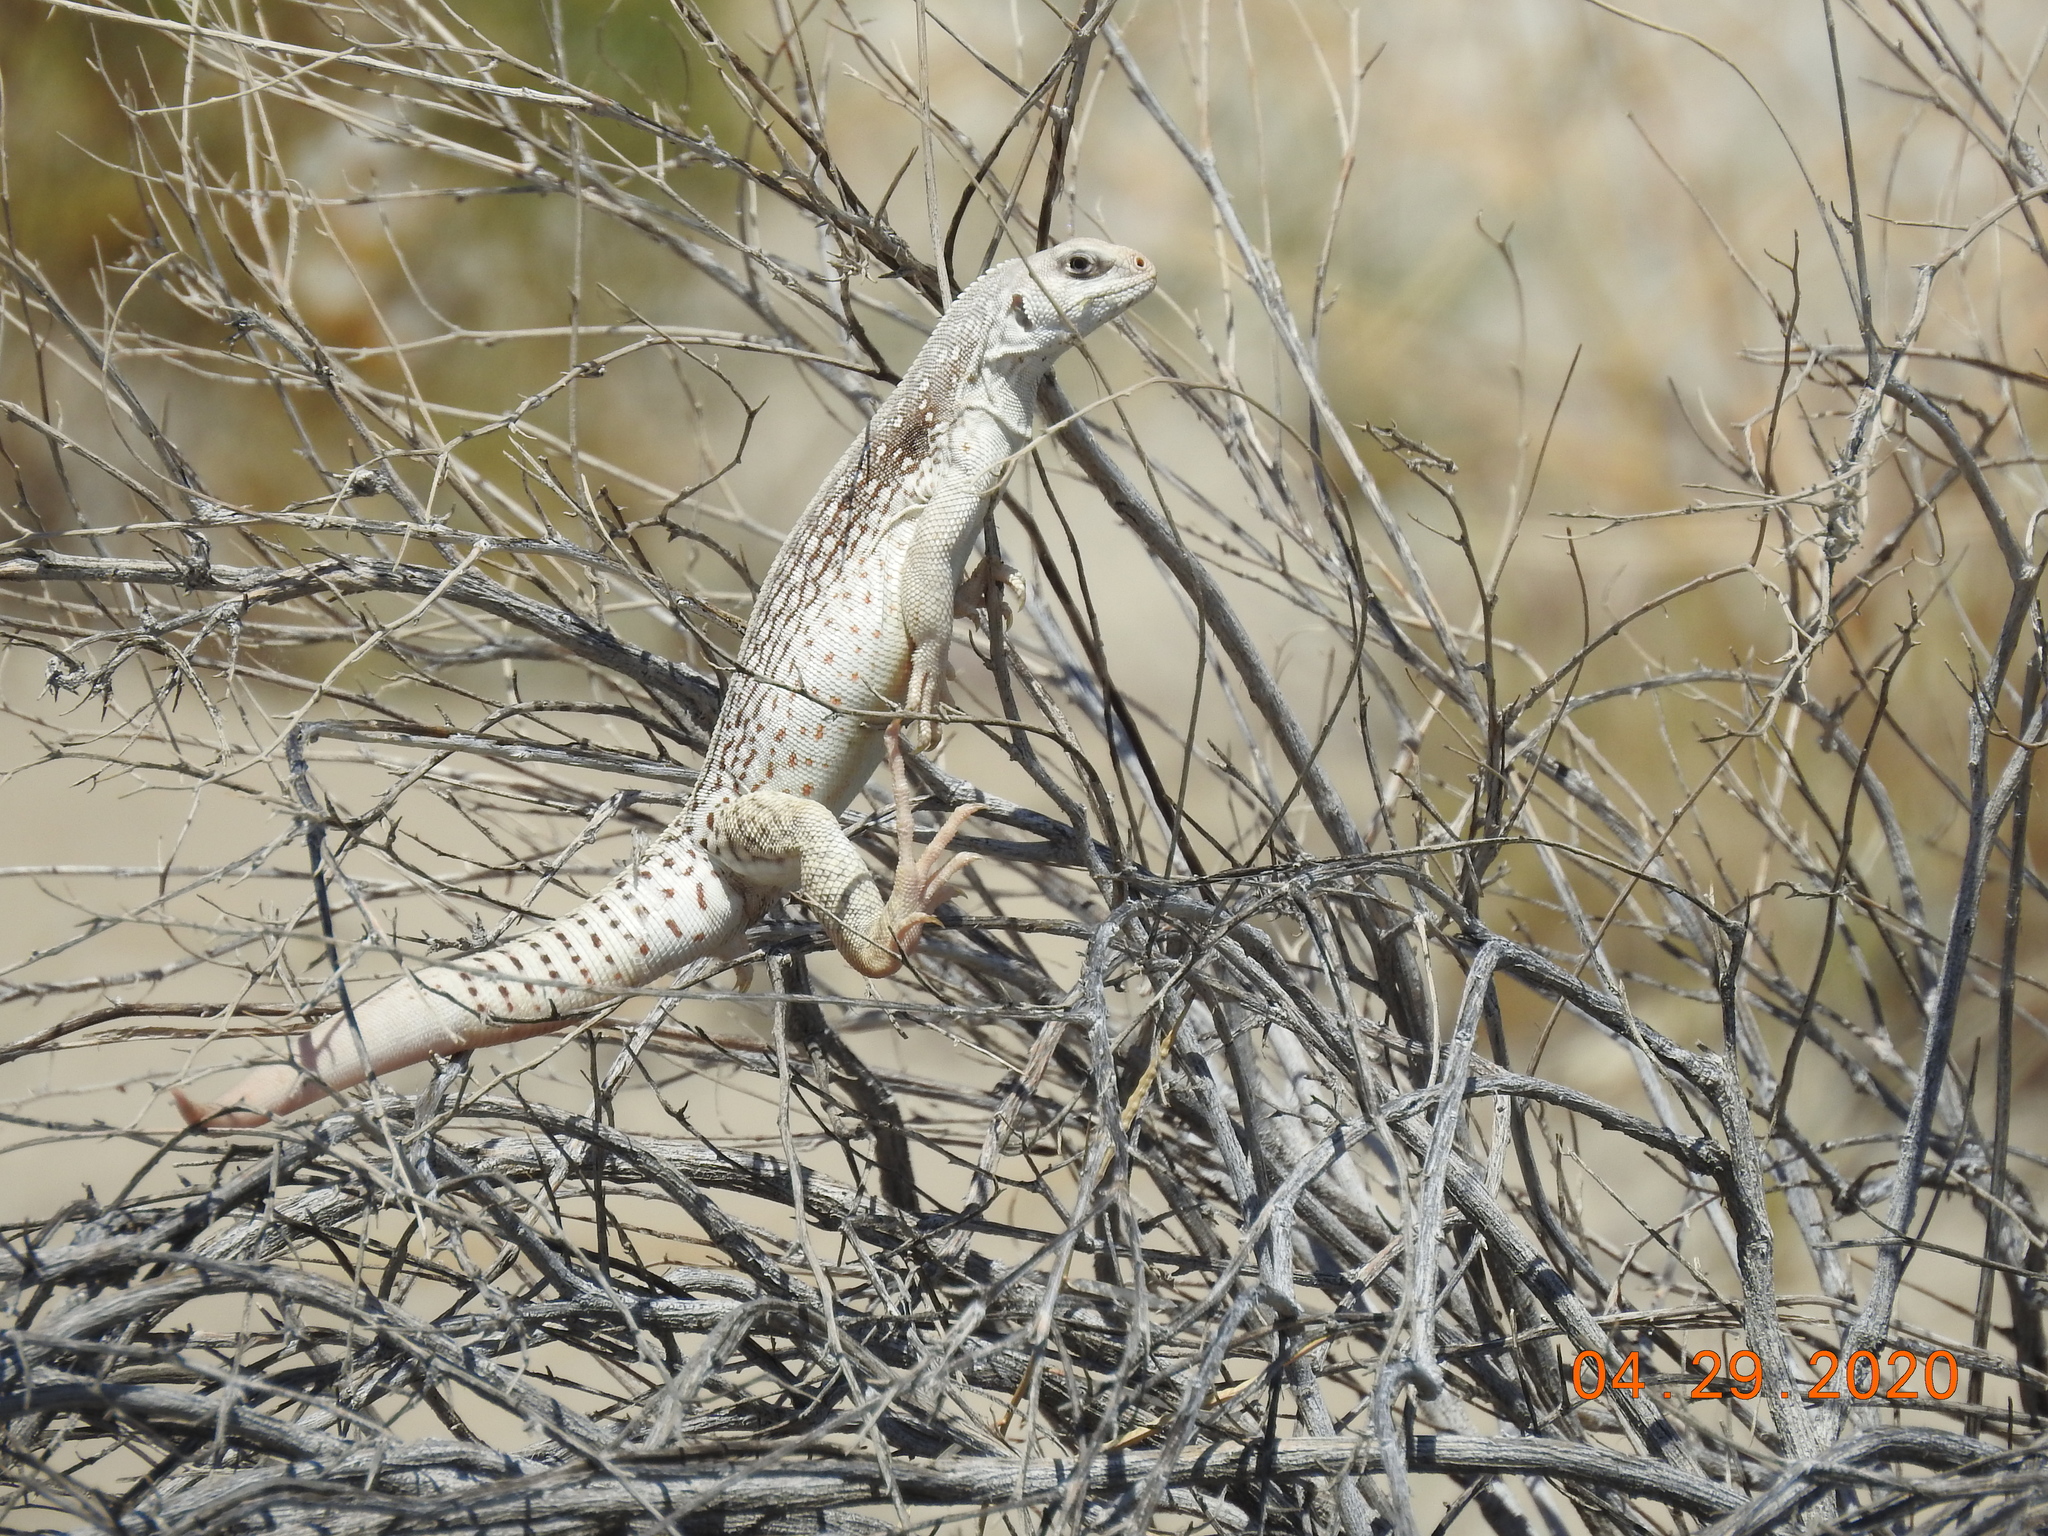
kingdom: Animalia
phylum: Chordata
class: Squamata
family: Iguanidae
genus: Dipsosaurus
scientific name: Dipsosaurus dorsalis
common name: Desert iguana
